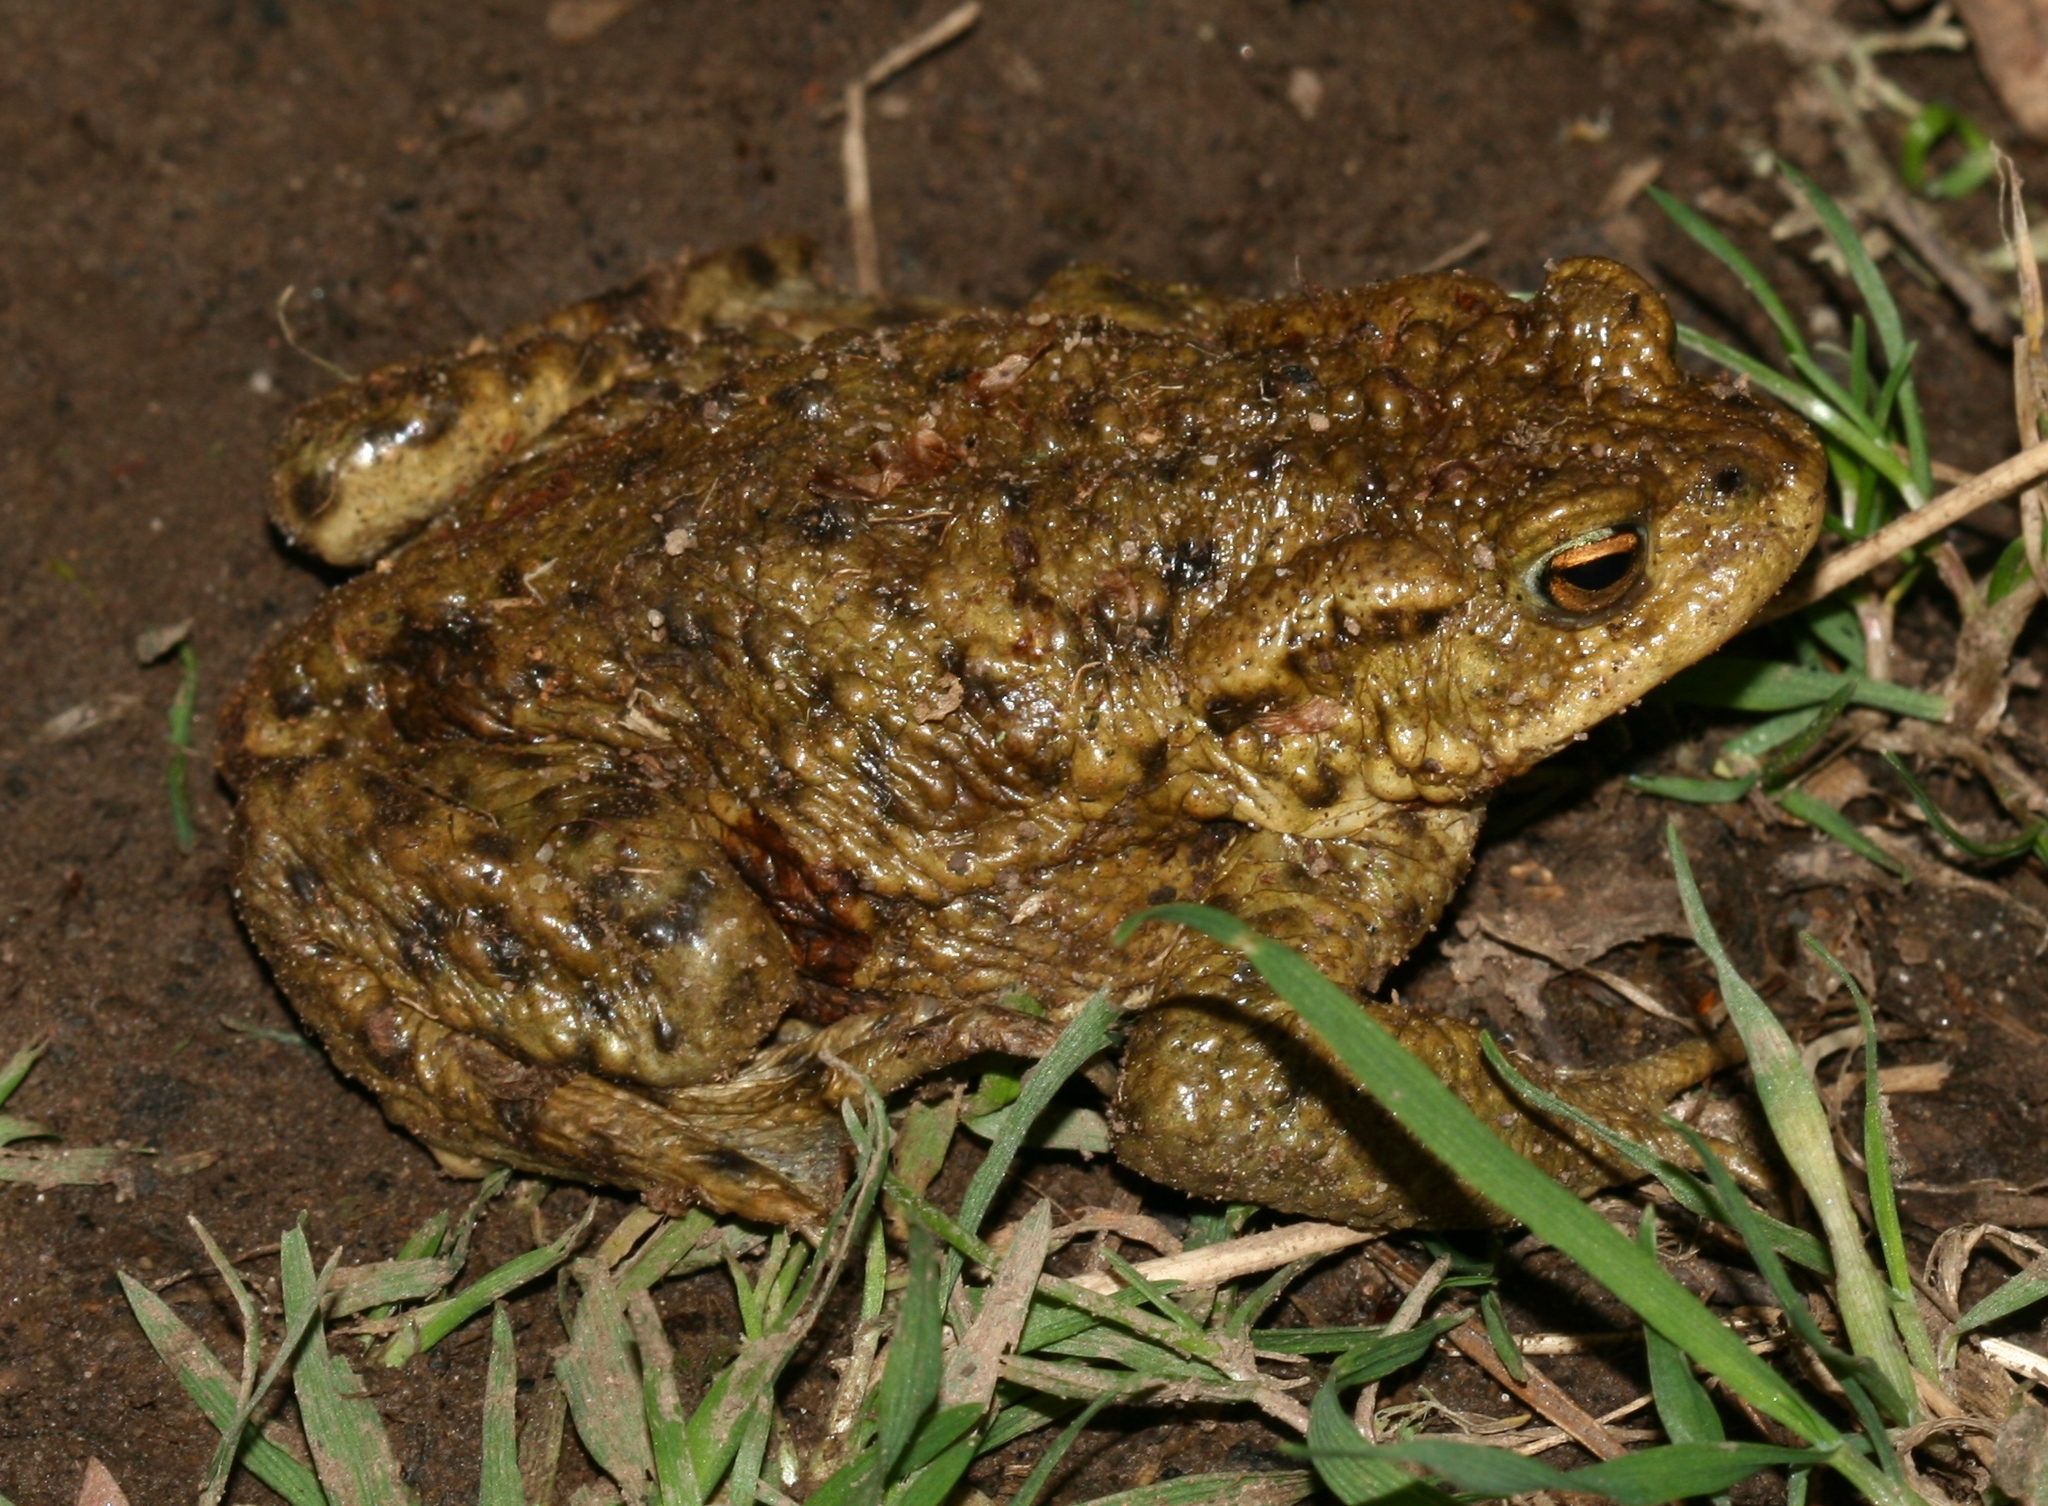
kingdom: Animalia
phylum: Chordata
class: Amphibia
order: Anura
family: Bufonidae
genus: Bufo
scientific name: Bufo bufo
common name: Common toad
